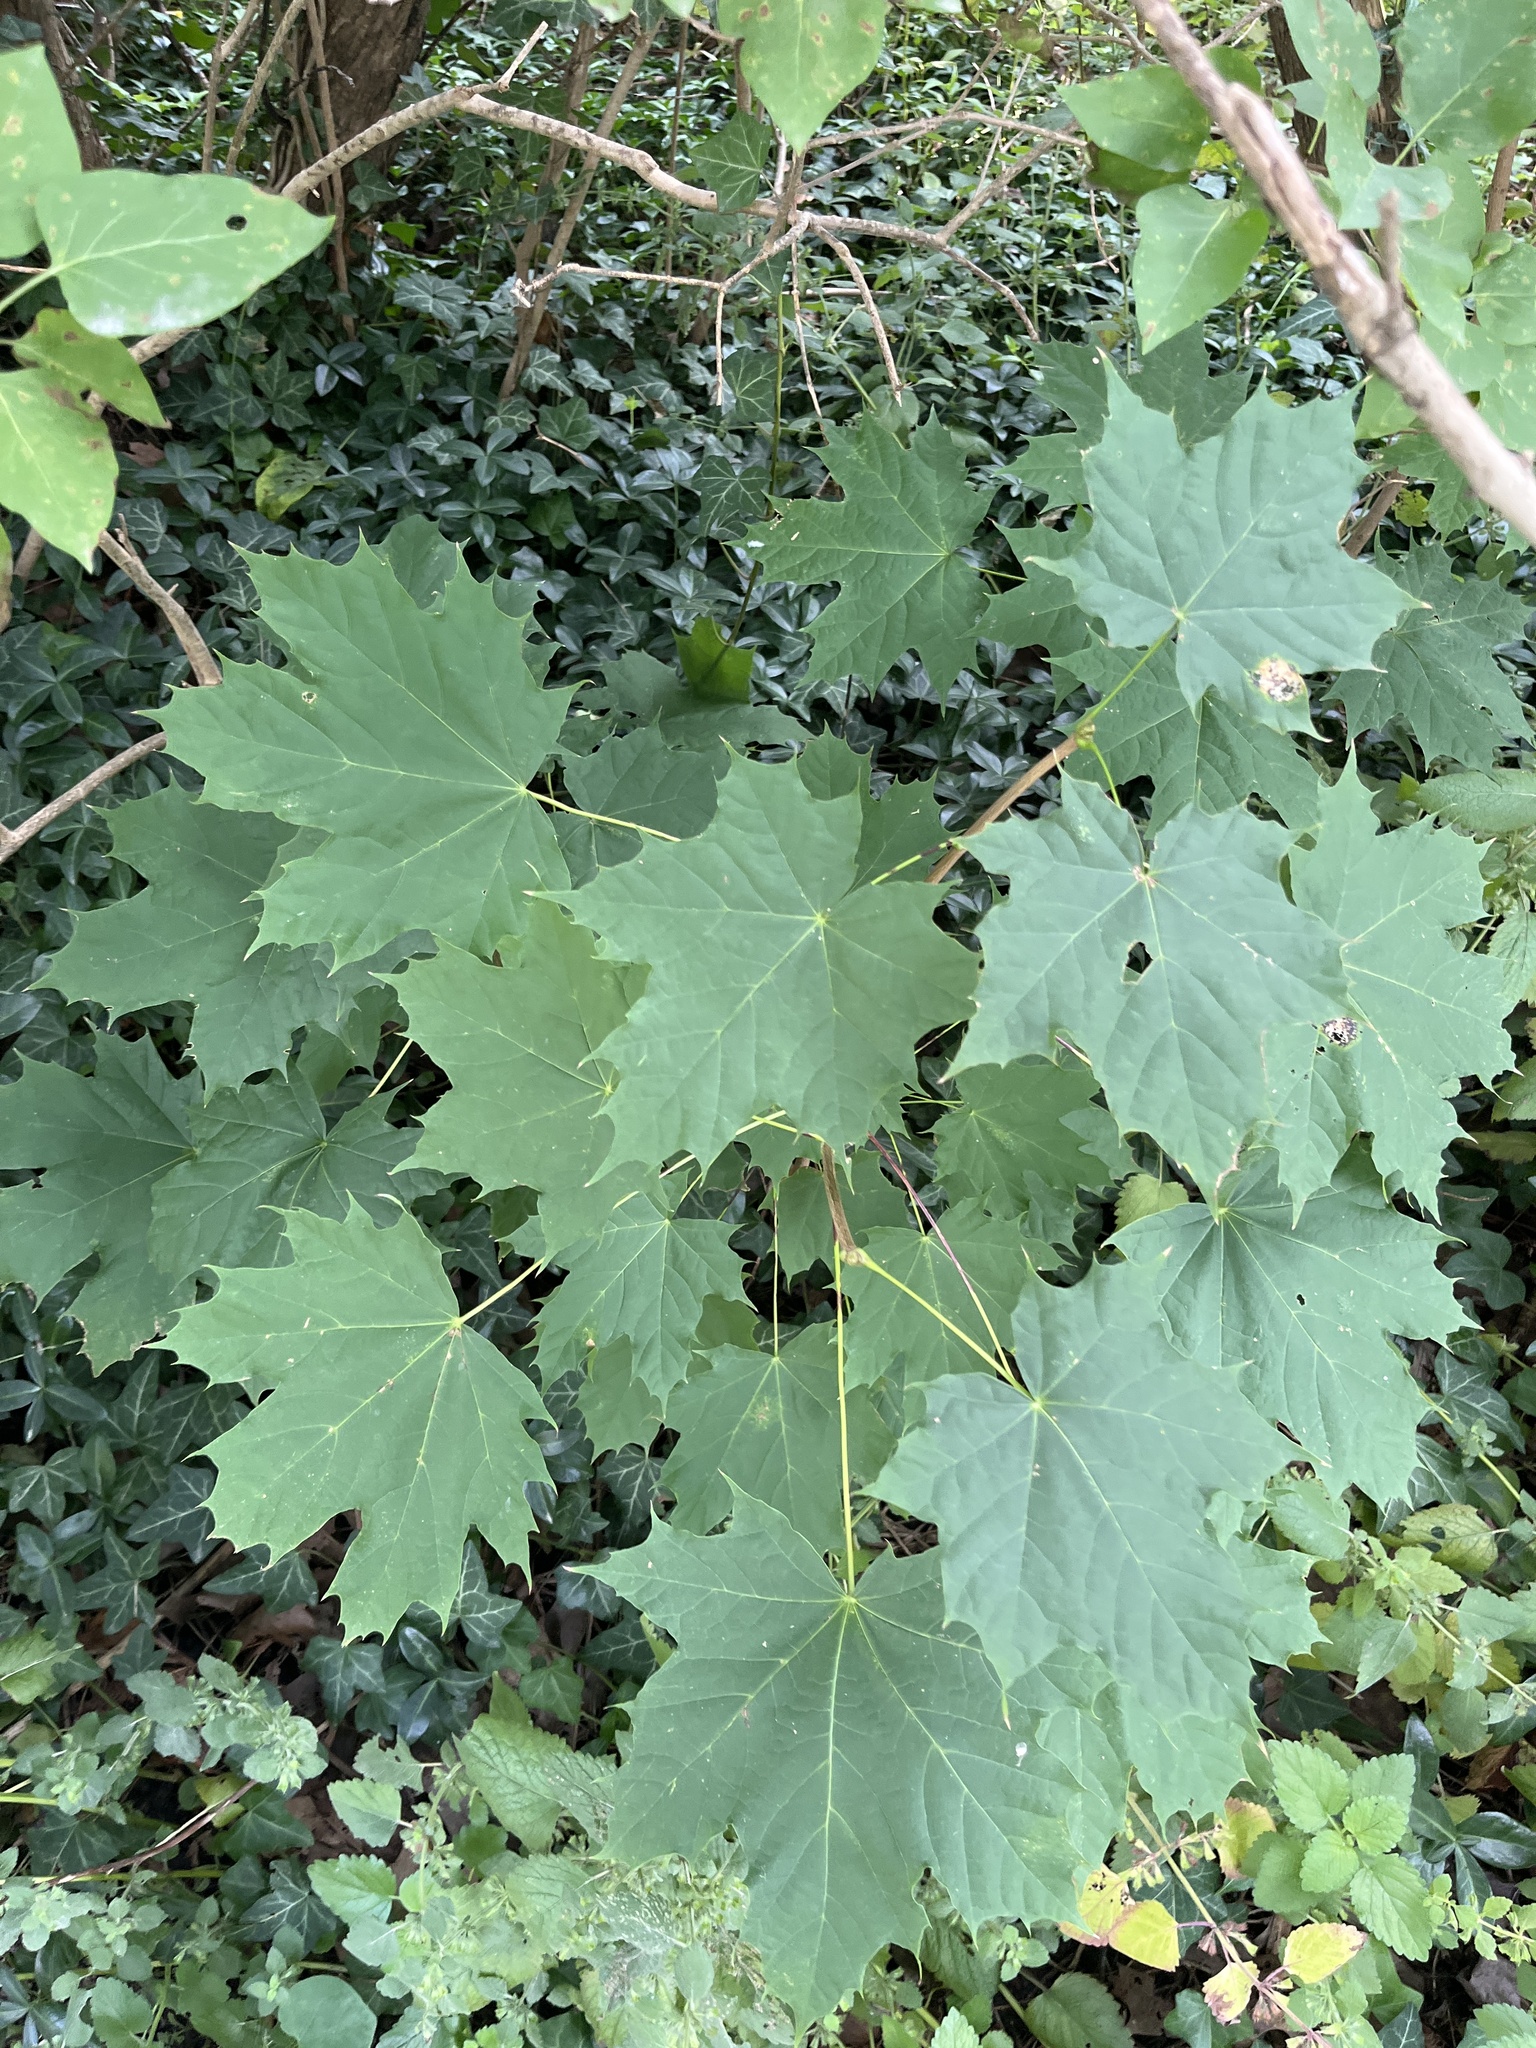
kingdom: Plantae
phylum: Tracheophyta
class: Magnoliopsida
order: Sapindales
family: Sapindaceae
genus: Acer
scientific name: Acer platanoides
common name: Norway maple
